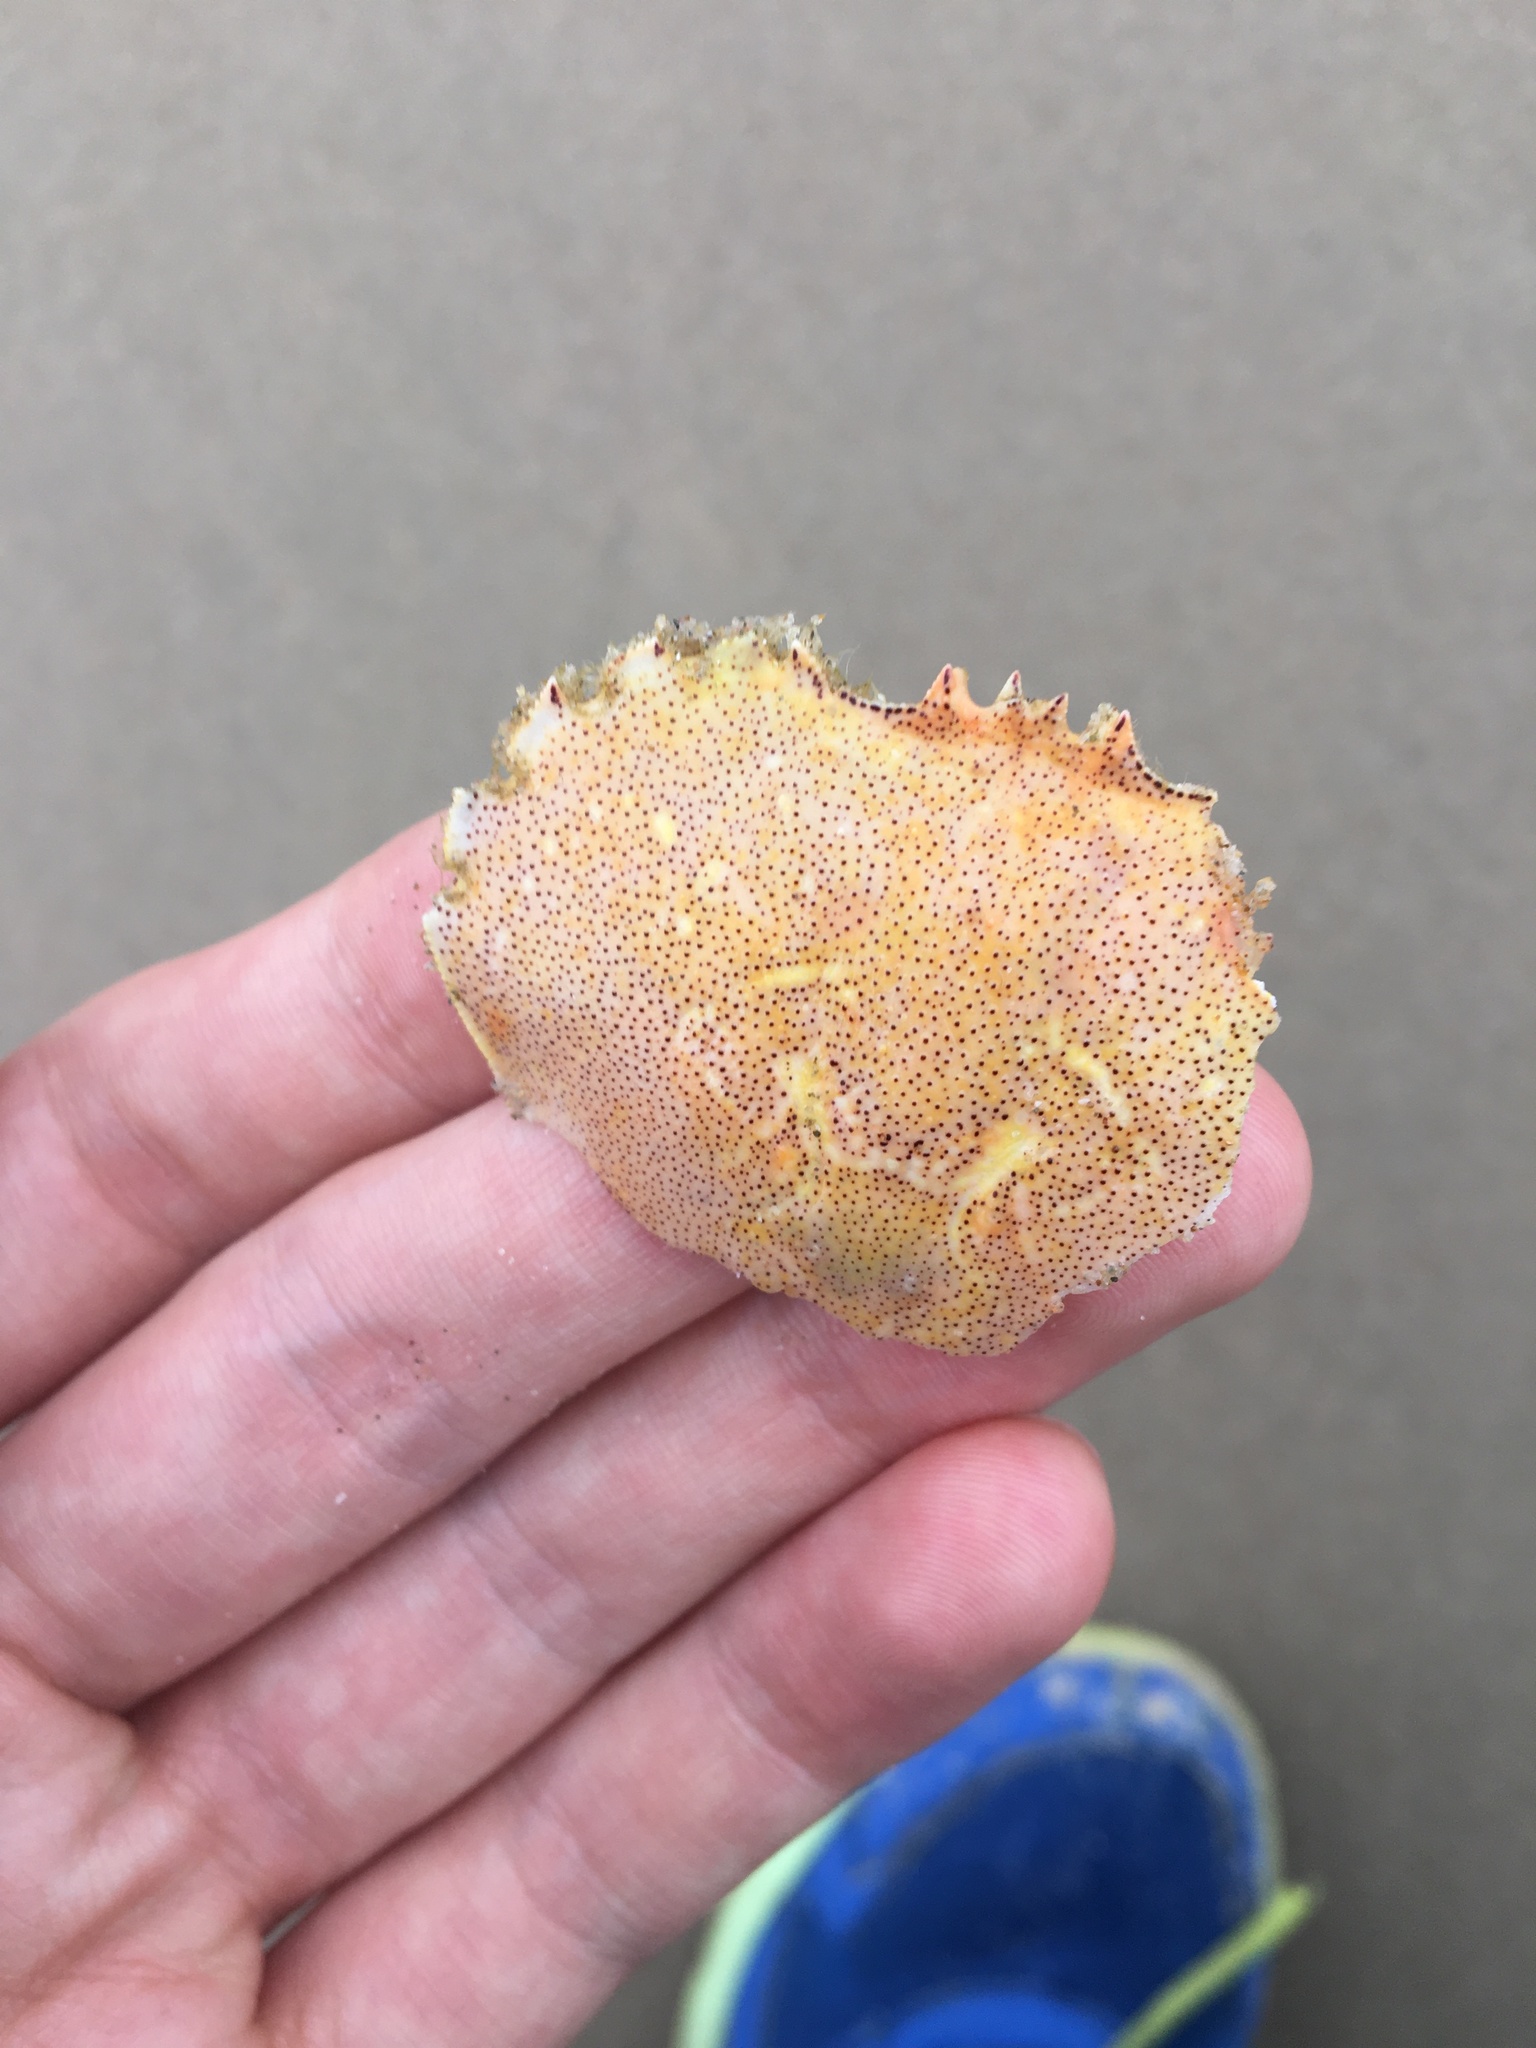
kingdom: Animalia
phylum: Arthropoda
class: Malacostraca
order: Decapoda
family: Ovalipidae
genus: Ovalipes
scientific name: Ovalipes australiensis
